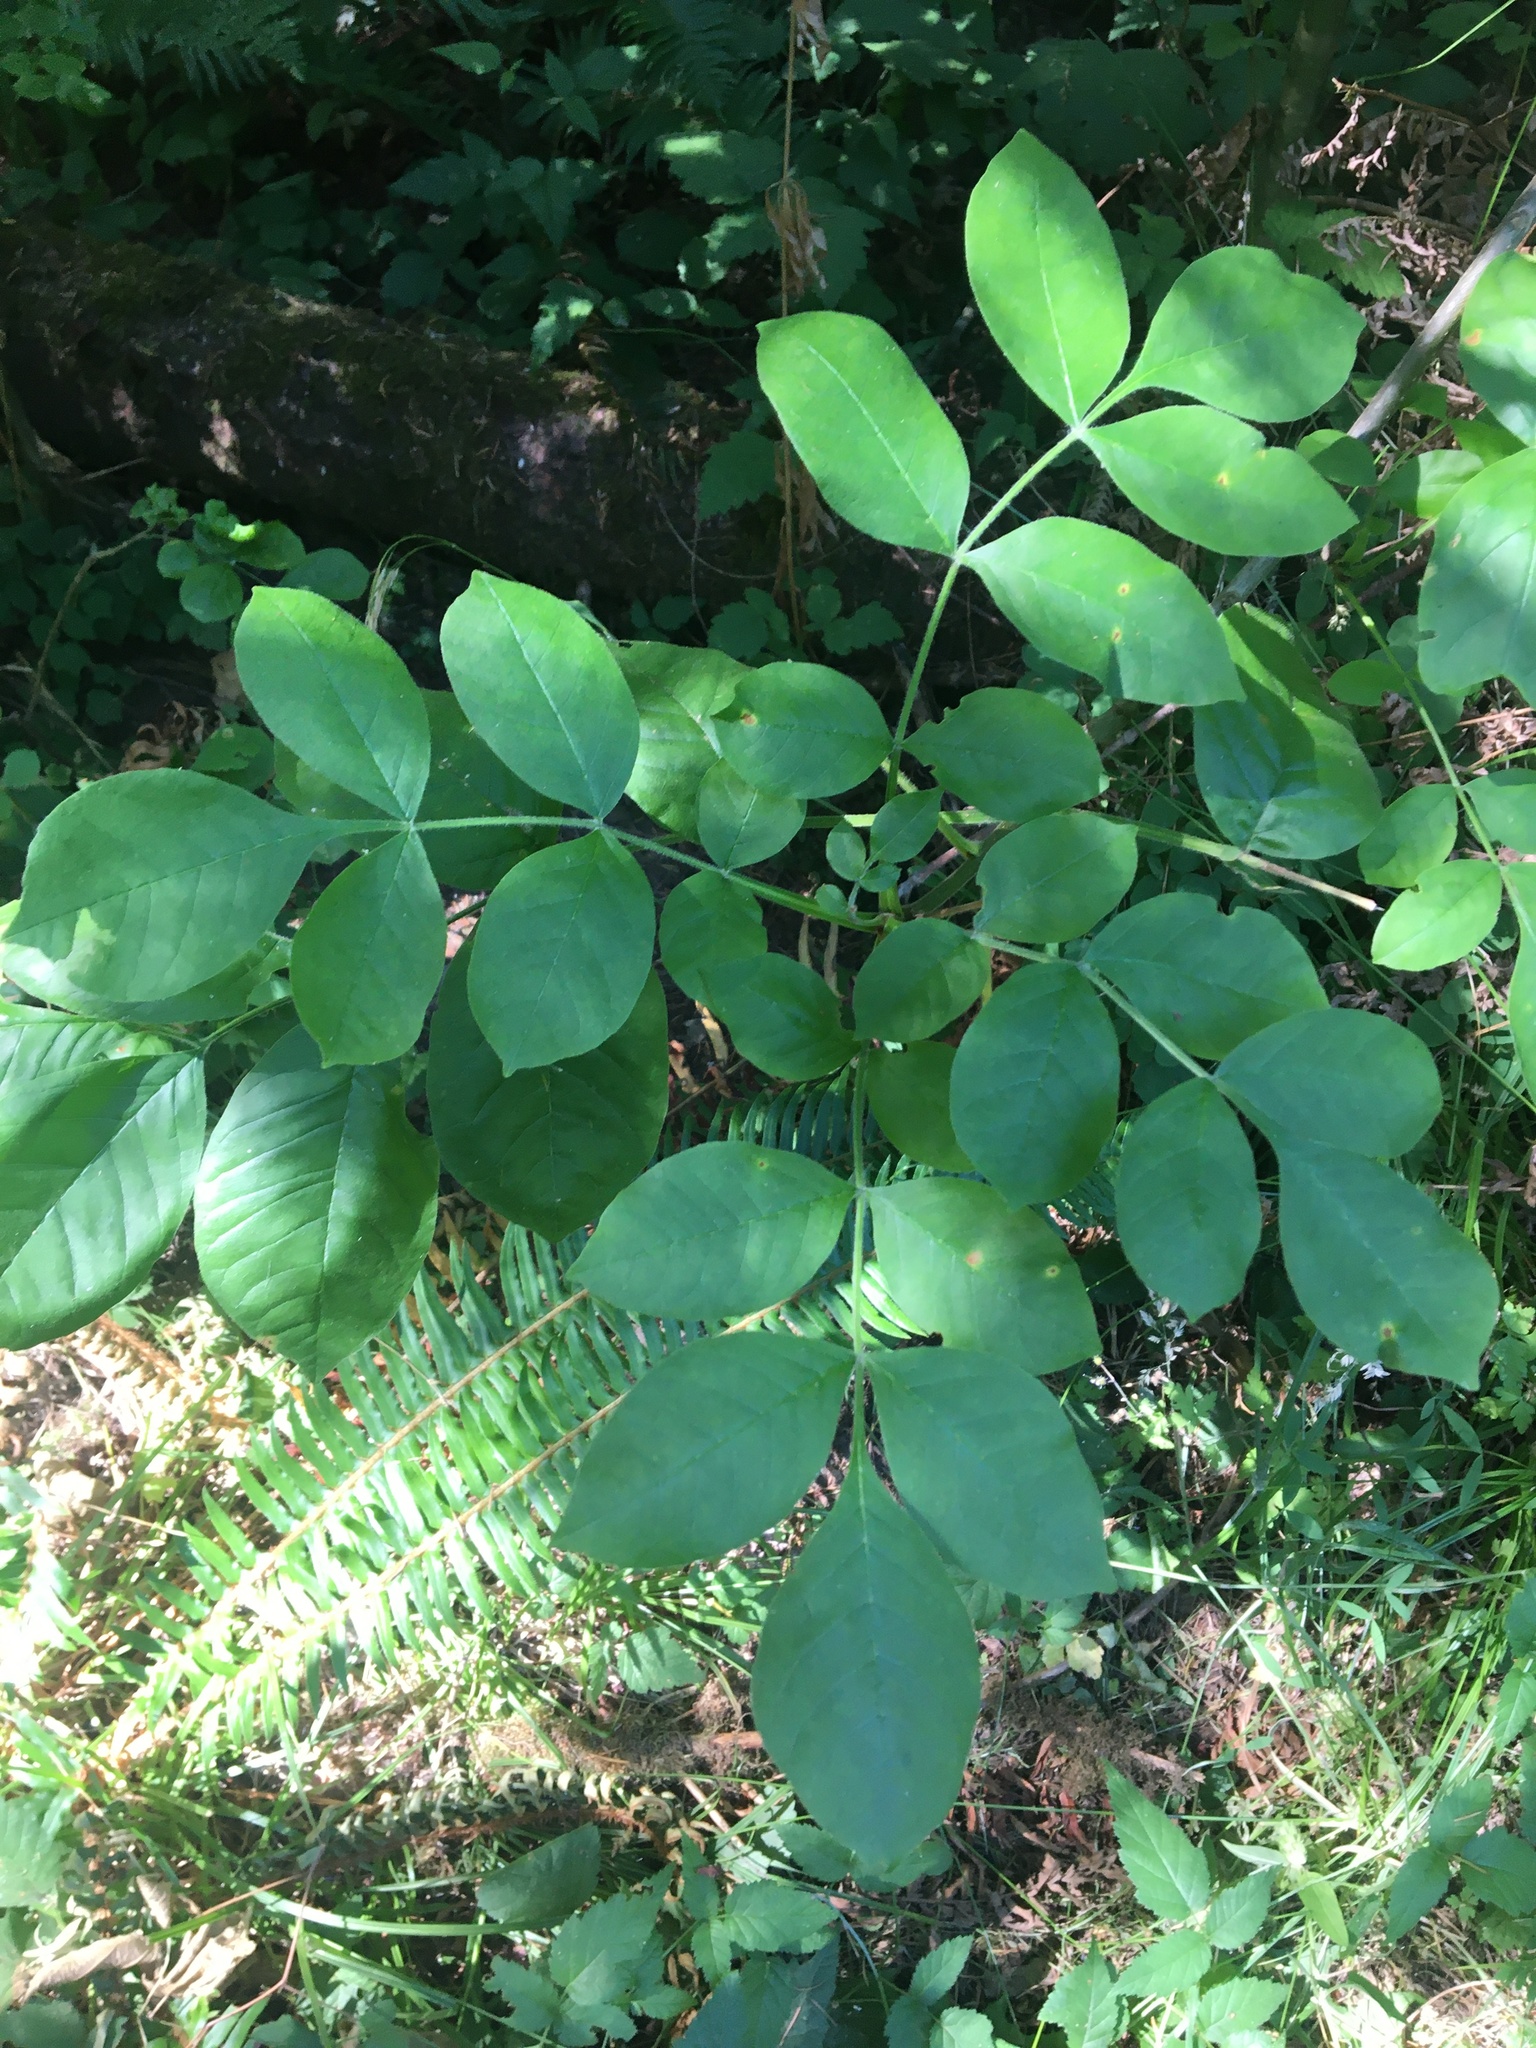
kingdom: Plantae
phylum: Tracheophyta
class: Magnoliopsida
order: Lamiales
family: Oleaceae
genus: Fraxinus
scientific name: Fraxinus latifolia
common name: Oregon ash
